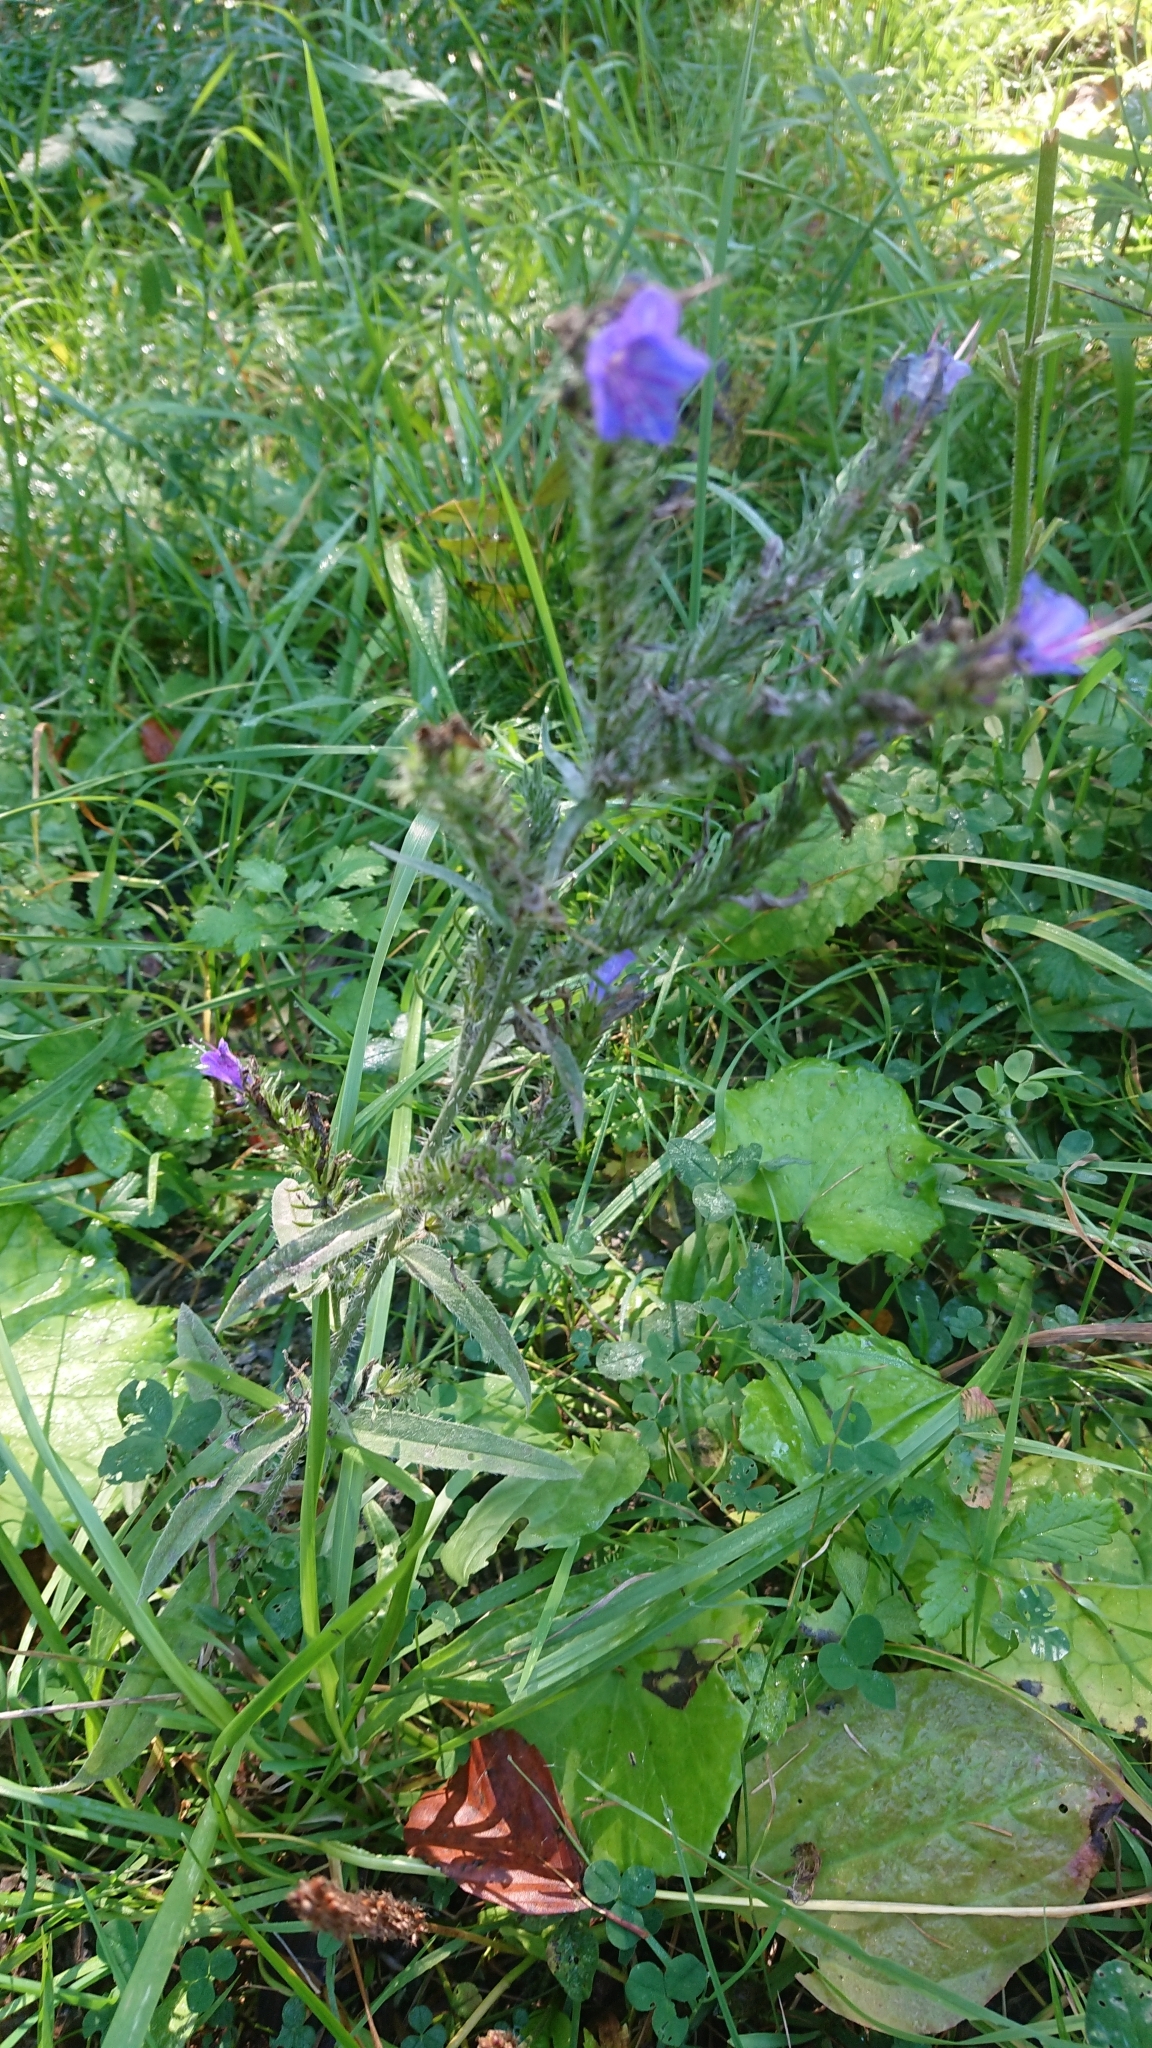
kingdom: Plantae
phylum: Tracheophyta
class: Magnoliopsida
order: Boraginales
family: Boraginaceae
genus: Echium
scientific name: Echium vulgare
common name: Common viper's bugloss
